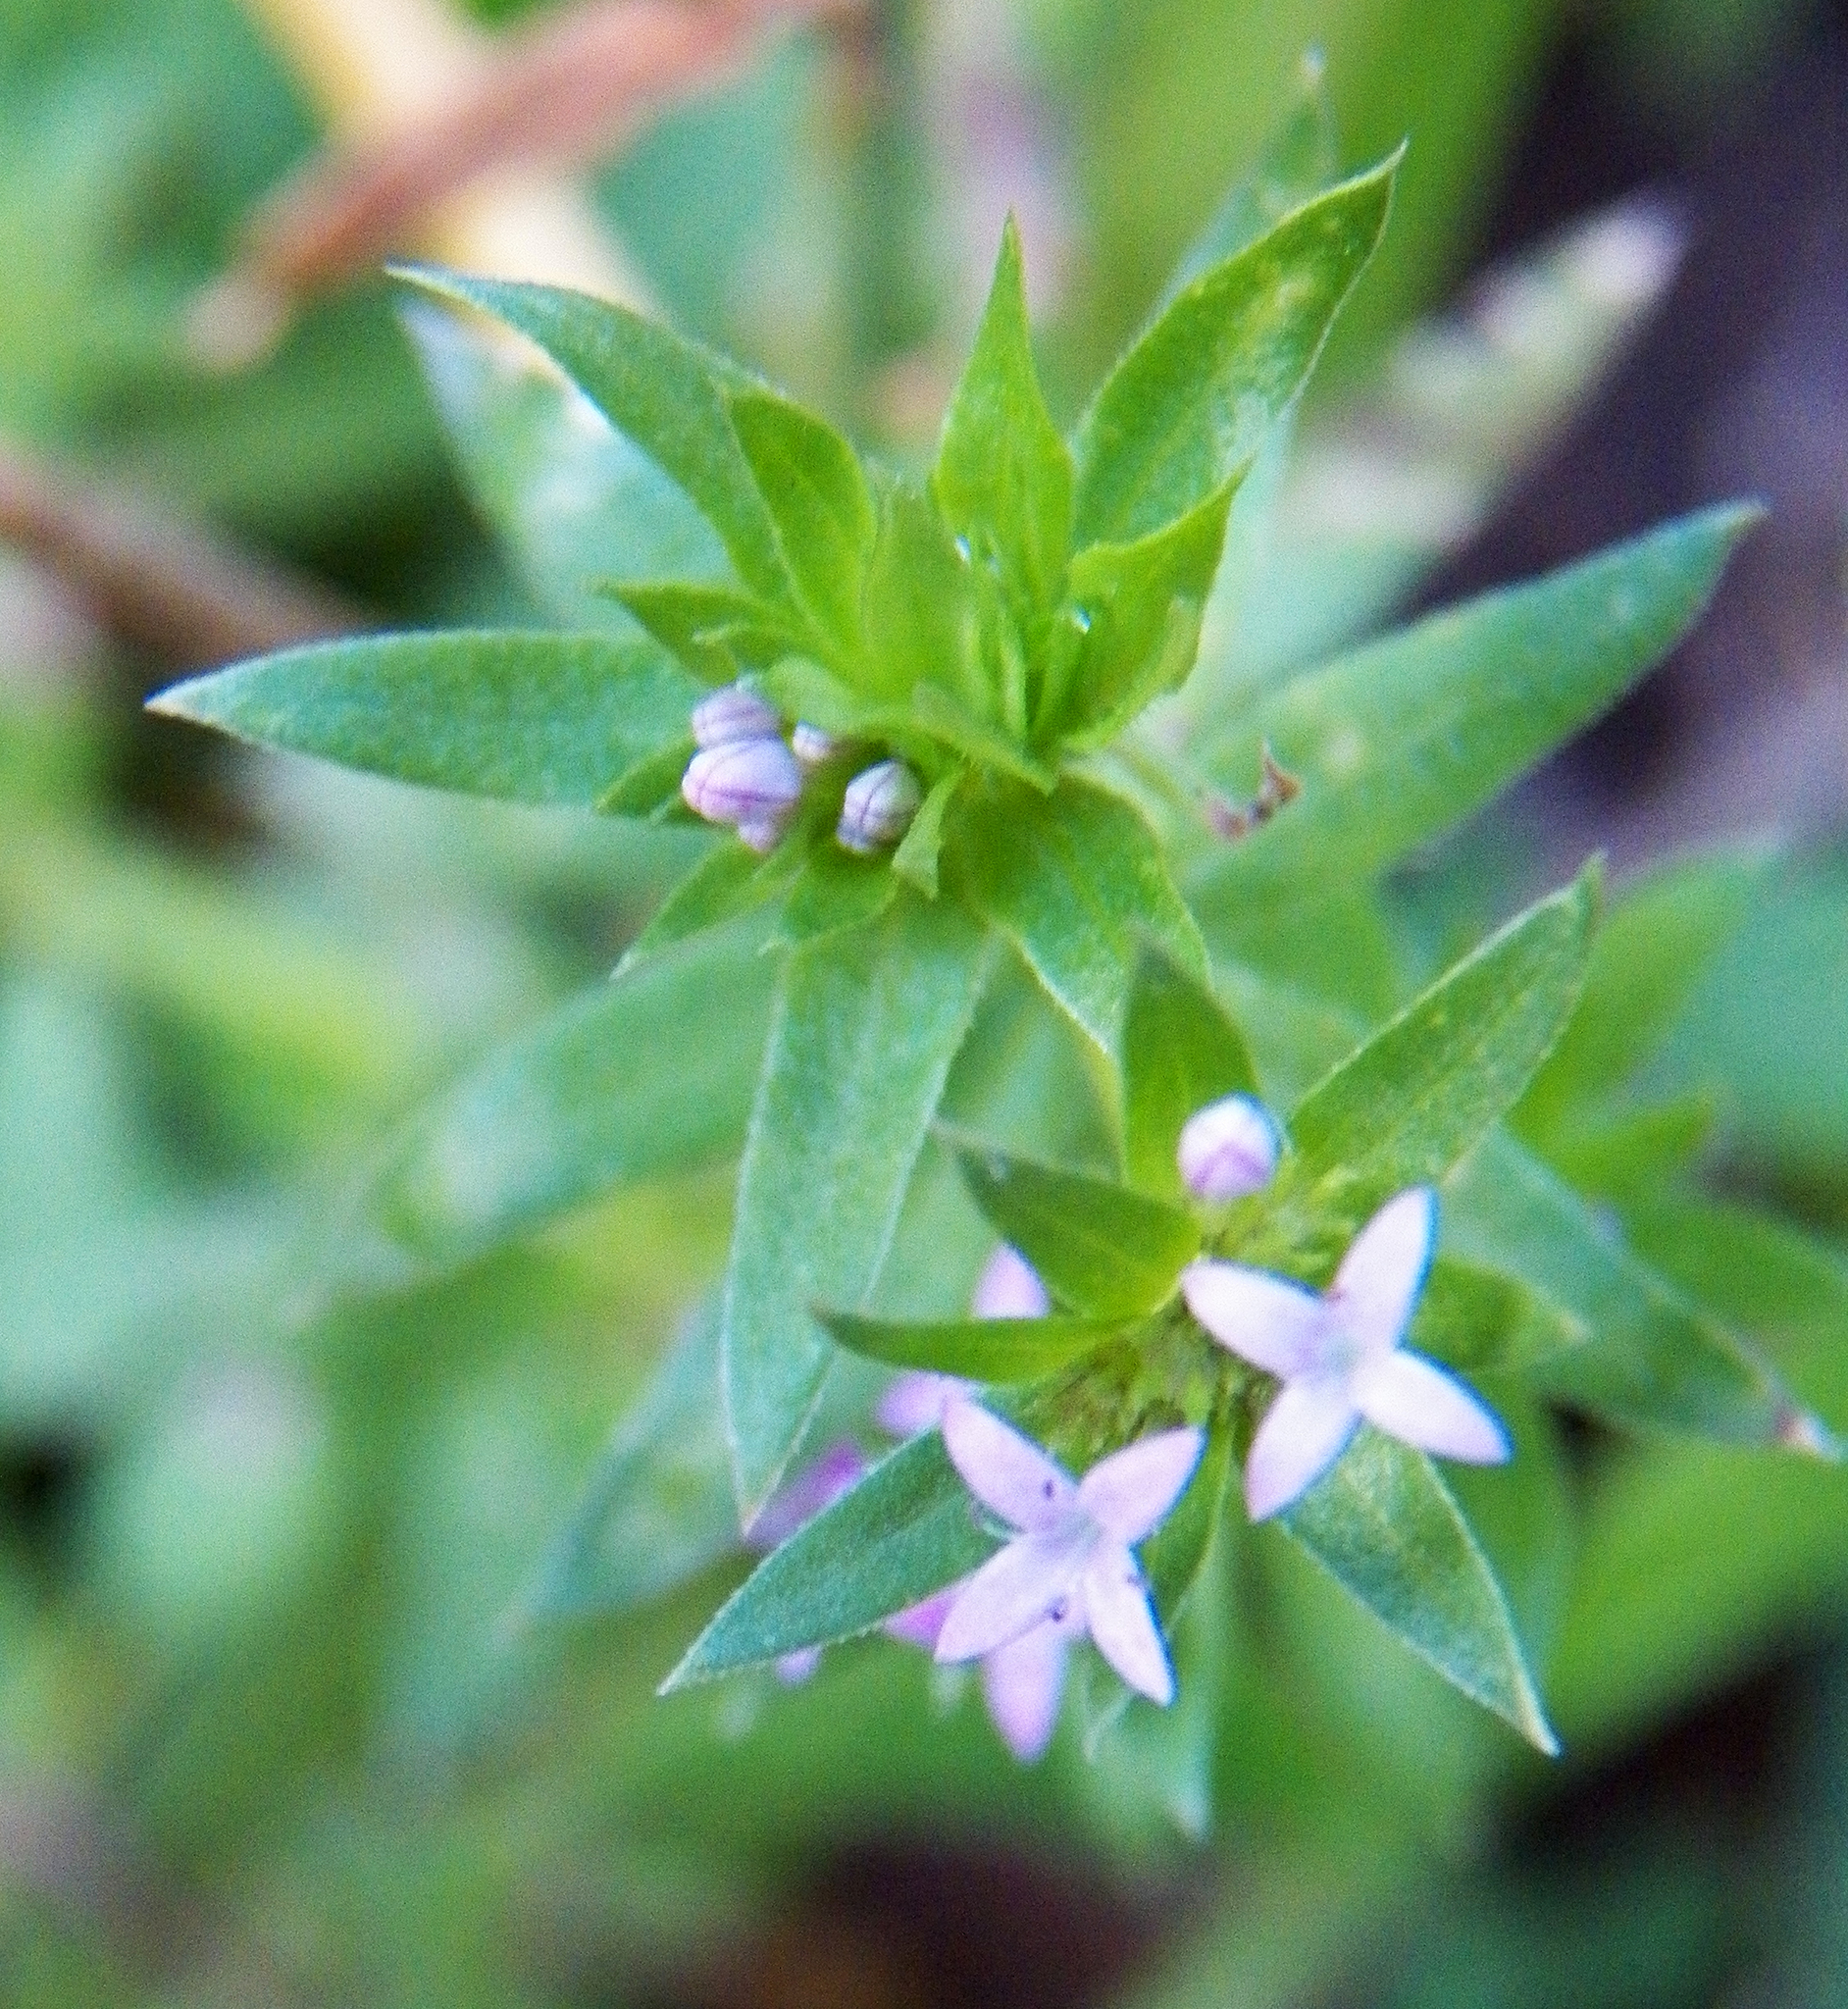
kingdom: Plantae
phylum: Tracheophyta
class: Magnoliopsida
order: Gentianales
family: Rubiaceae
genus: Sherardia
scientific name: Sherardia arvensis
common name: Field madder
